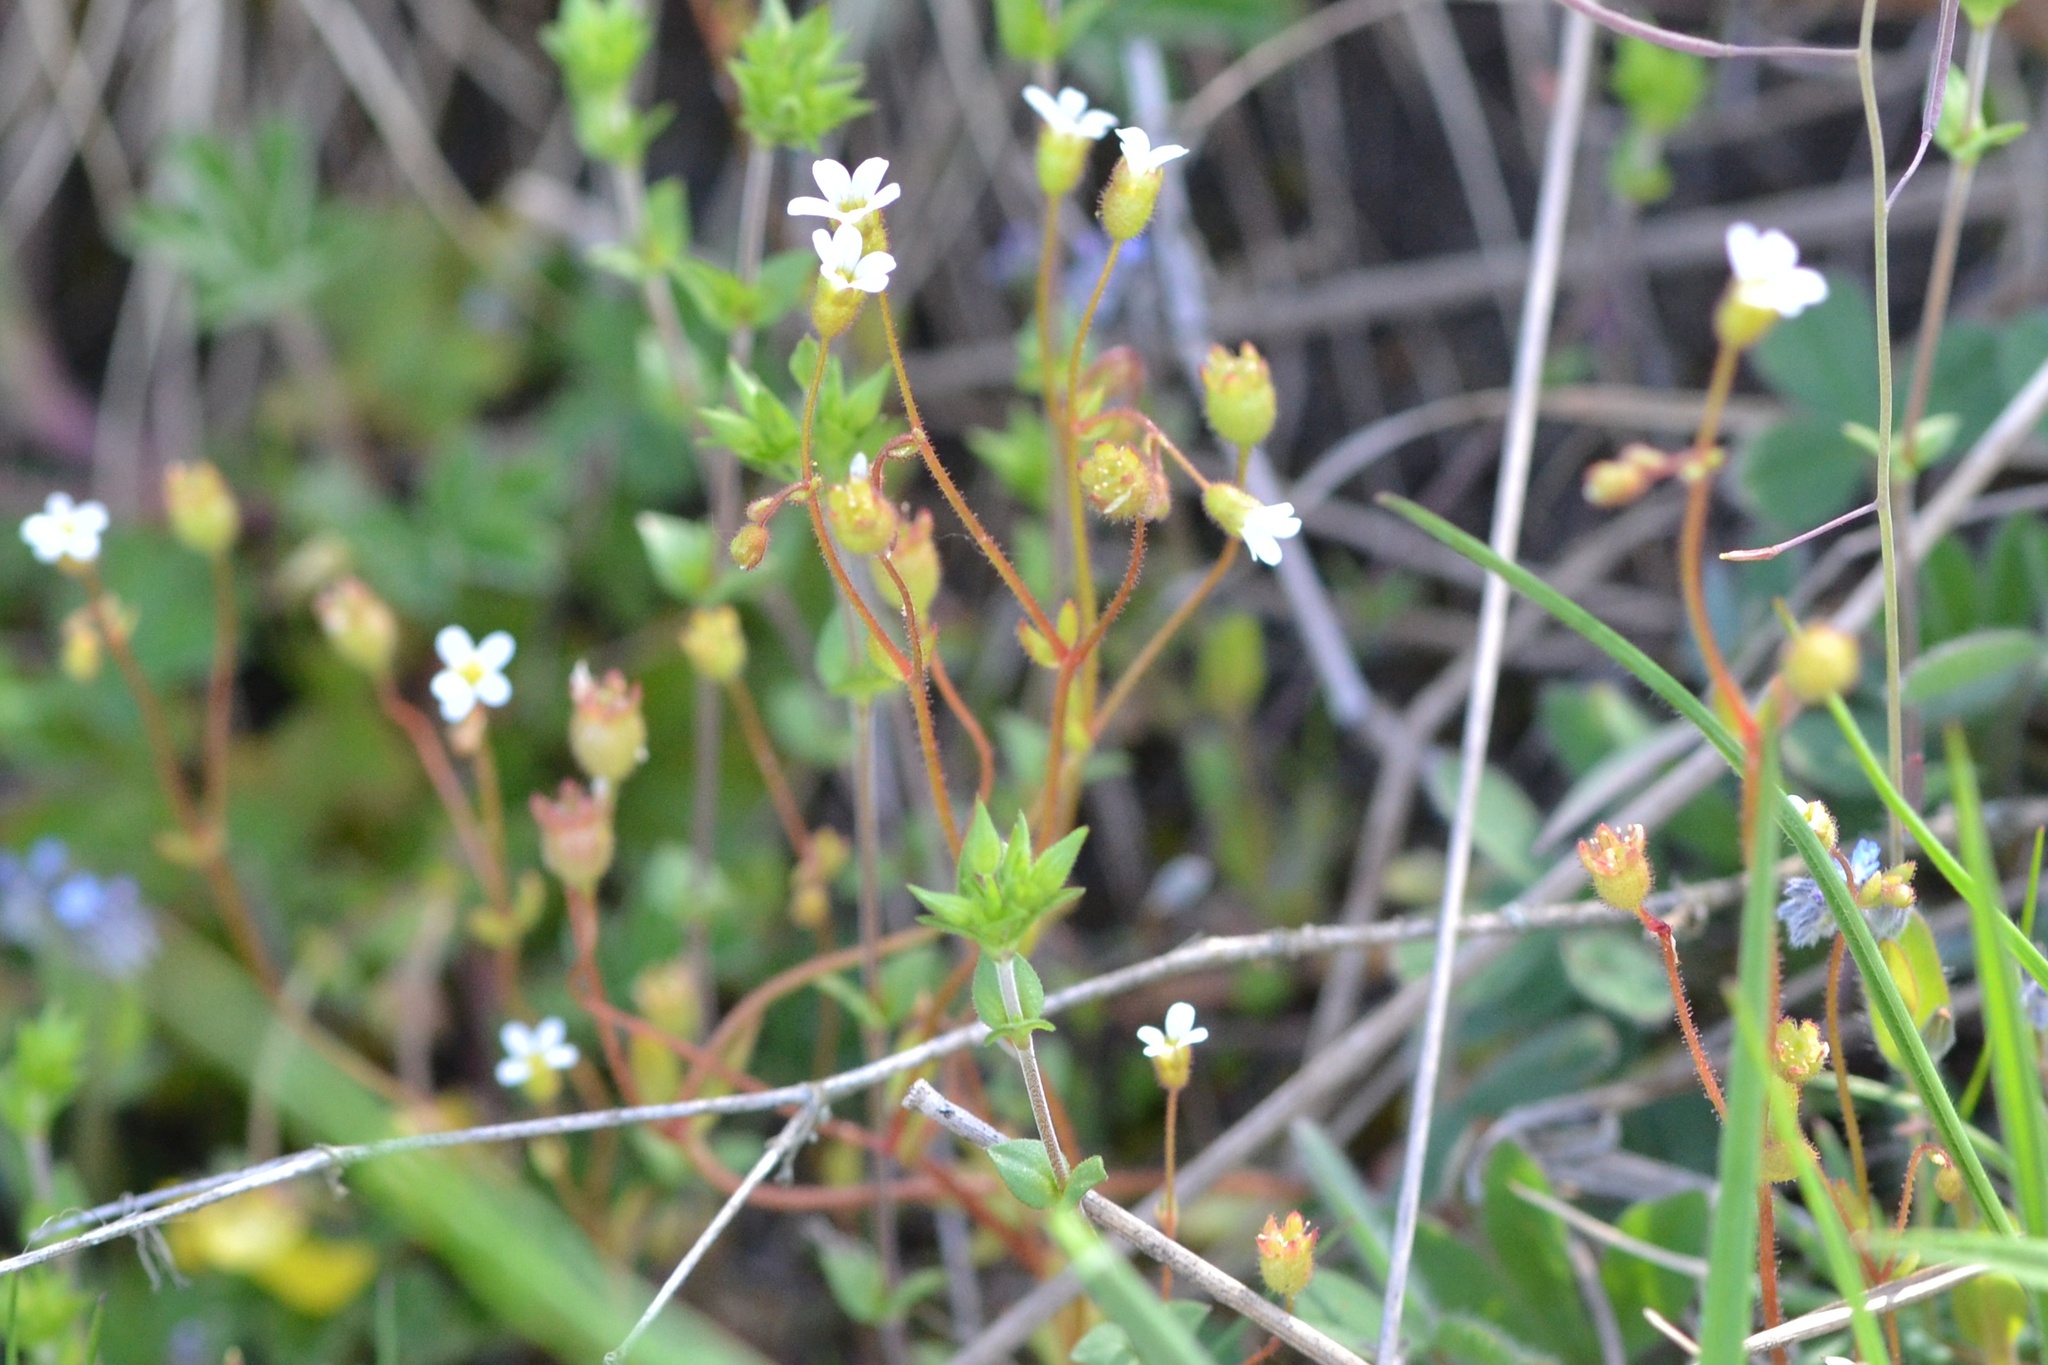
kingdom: Plantae
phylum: Tracheophyta
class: Magnoliopsida
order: Saxifragales
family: Saxifragaceae
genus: Saxifraga
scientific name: Saxifraga tridactylites
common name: Rue-leaved saxifrage
